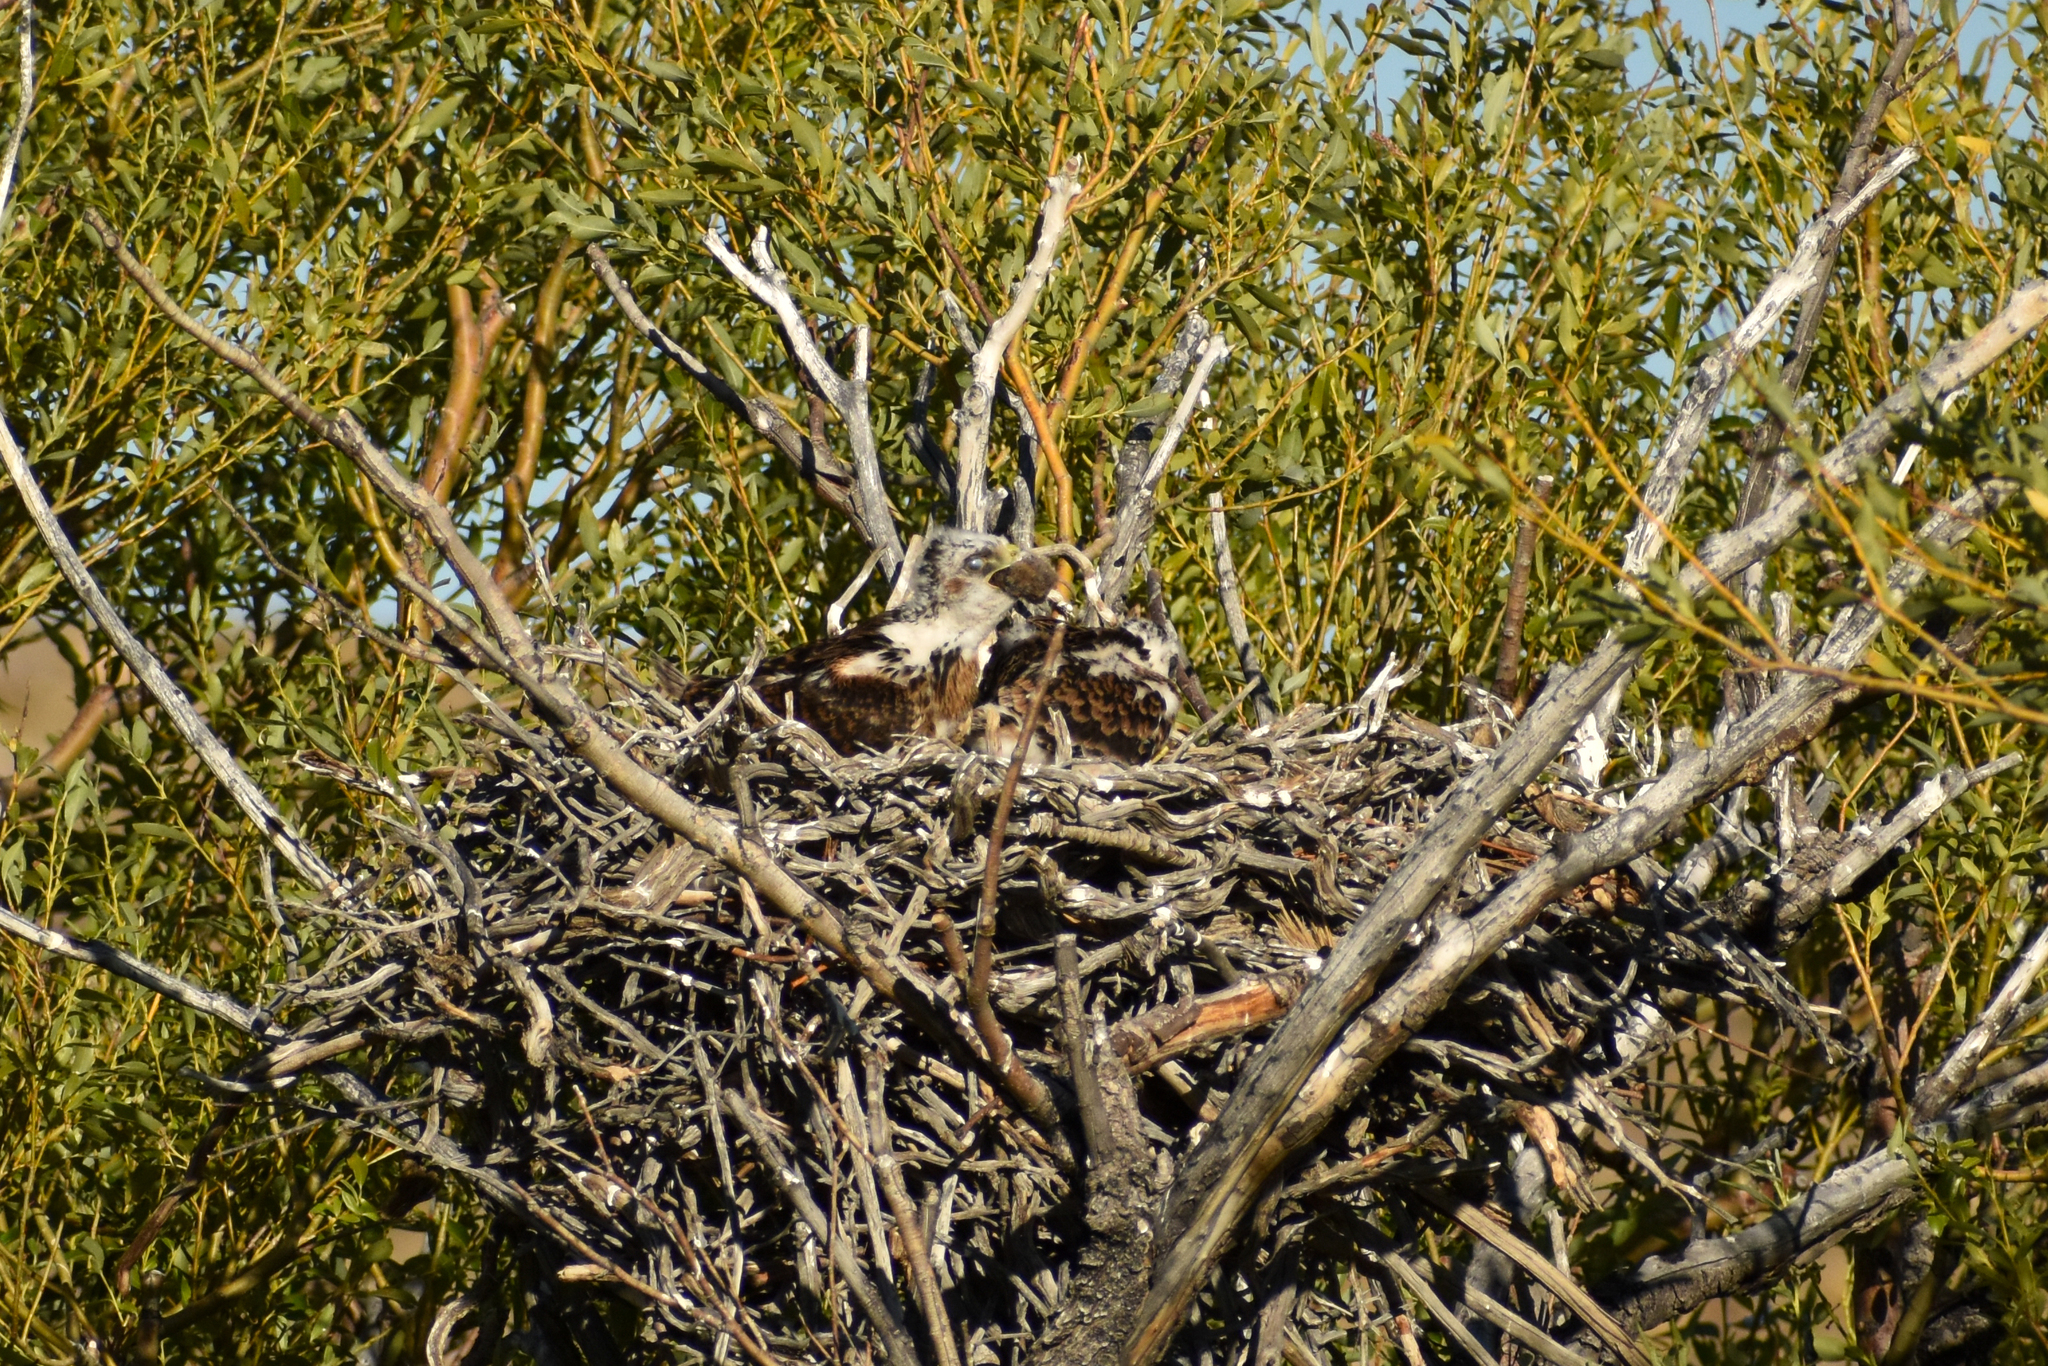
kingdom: Animalia
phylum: Chordata
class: Aves
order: Accipitriformes
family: Accipitridae
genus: Buteo
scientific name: Buteo polyosoma
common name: Variable hawk
